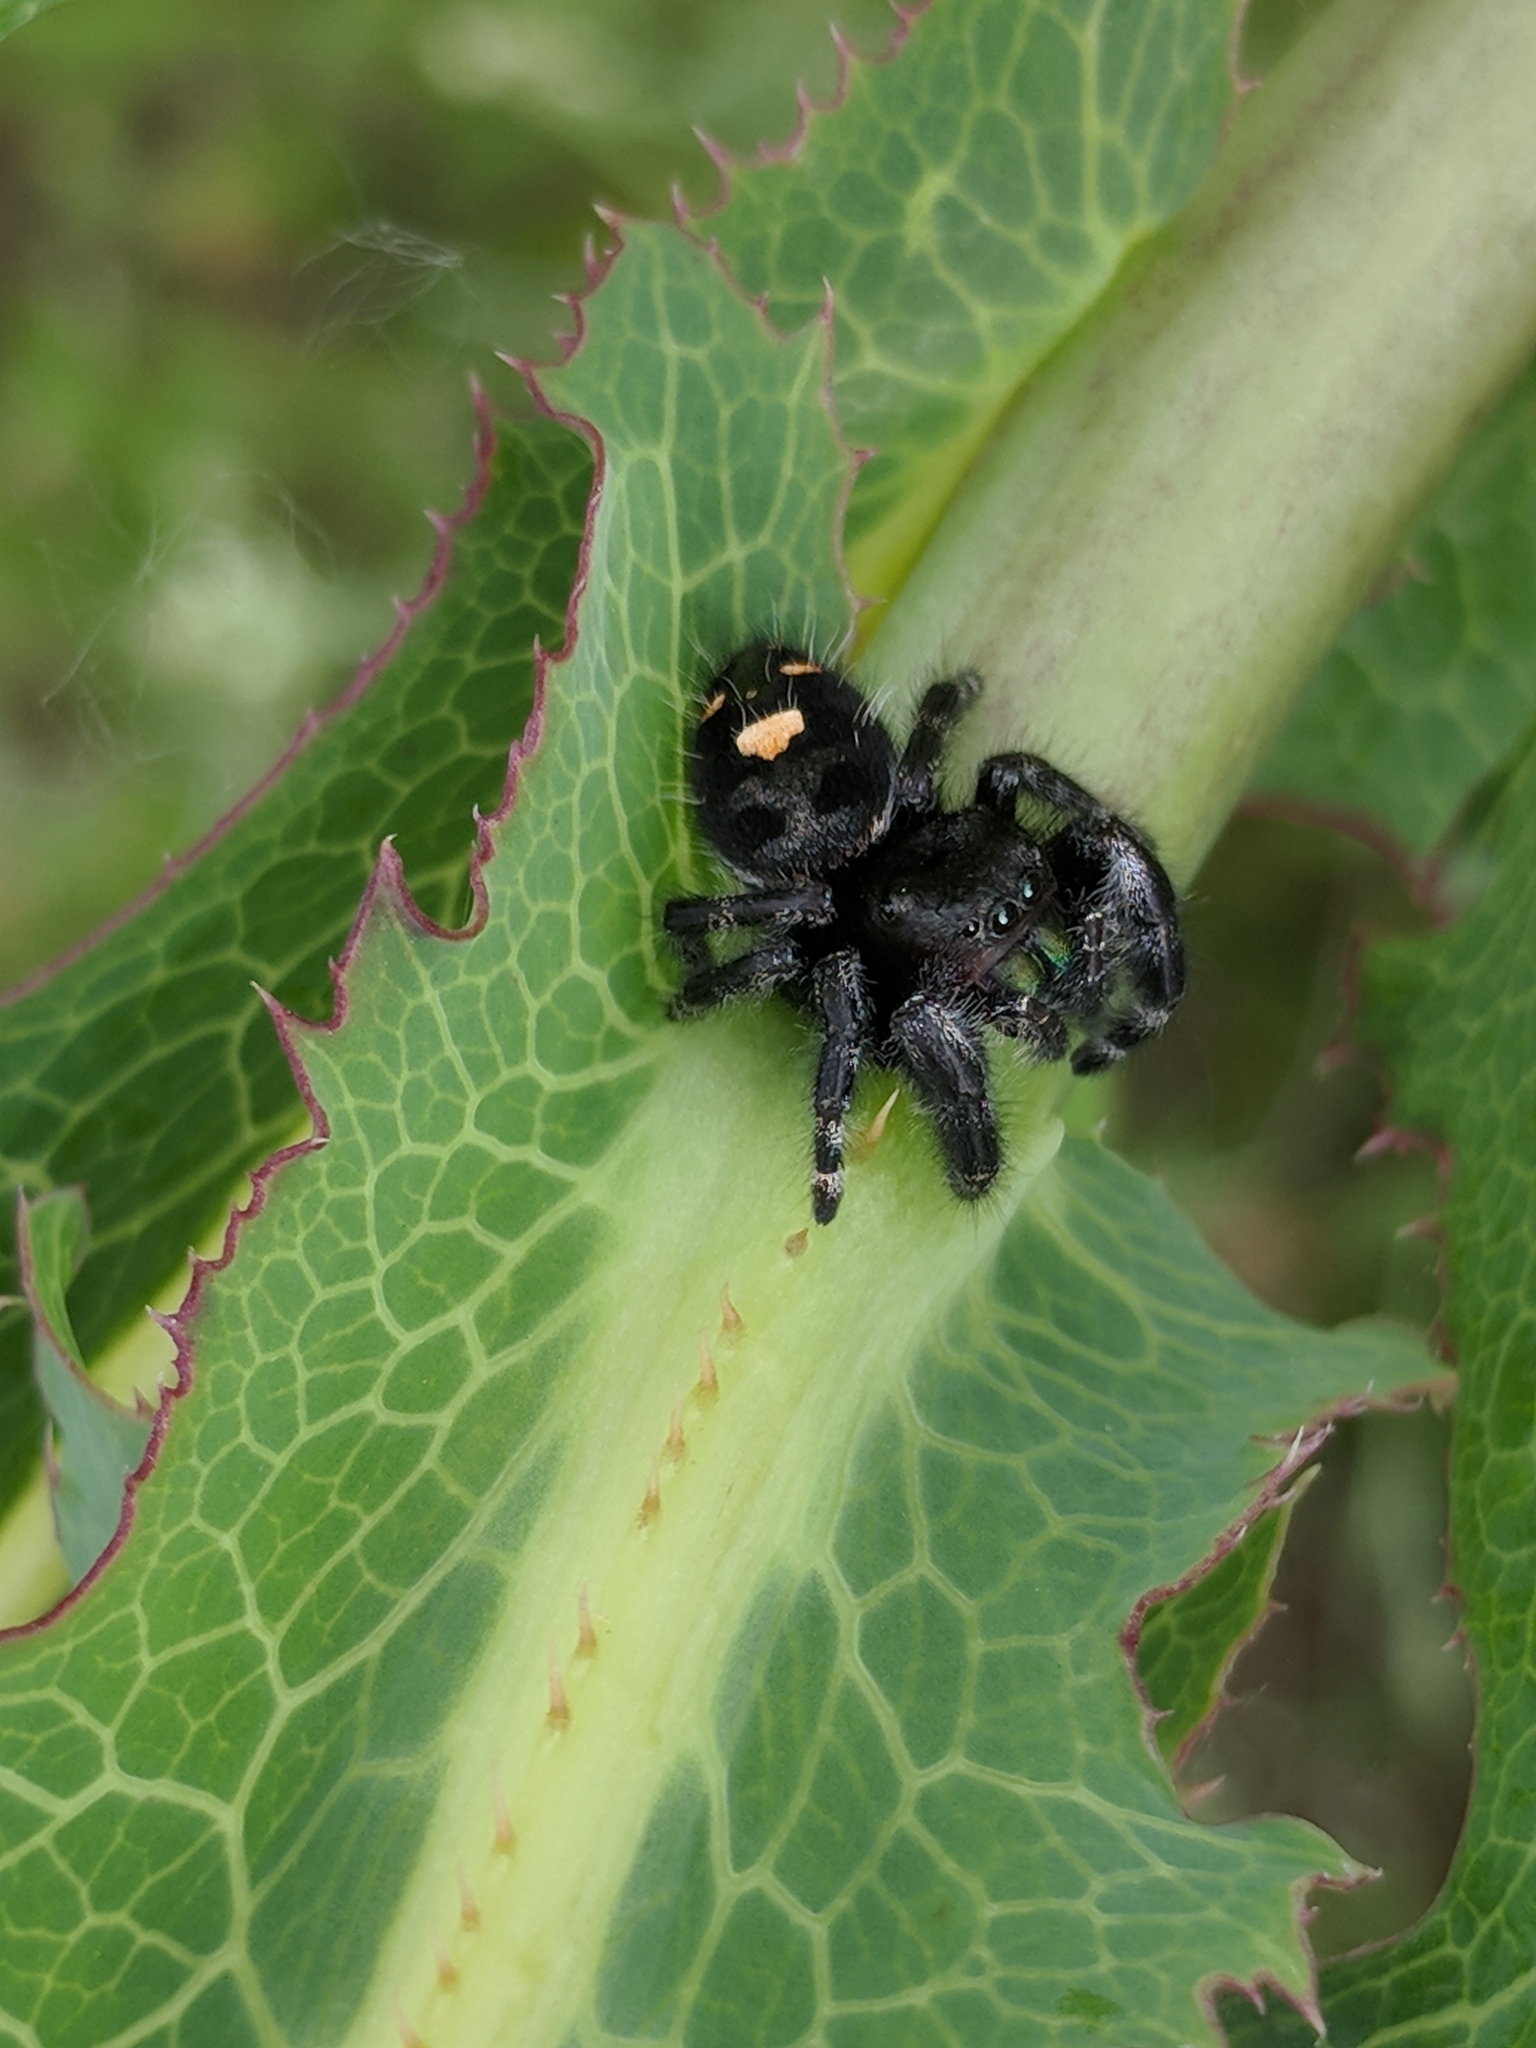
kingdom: Animalia
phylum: Arthropoda
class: Arachnida
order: Araneae
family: Salticidae
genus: Phidippus
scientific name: Phidippus audax
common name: Bold jumper
